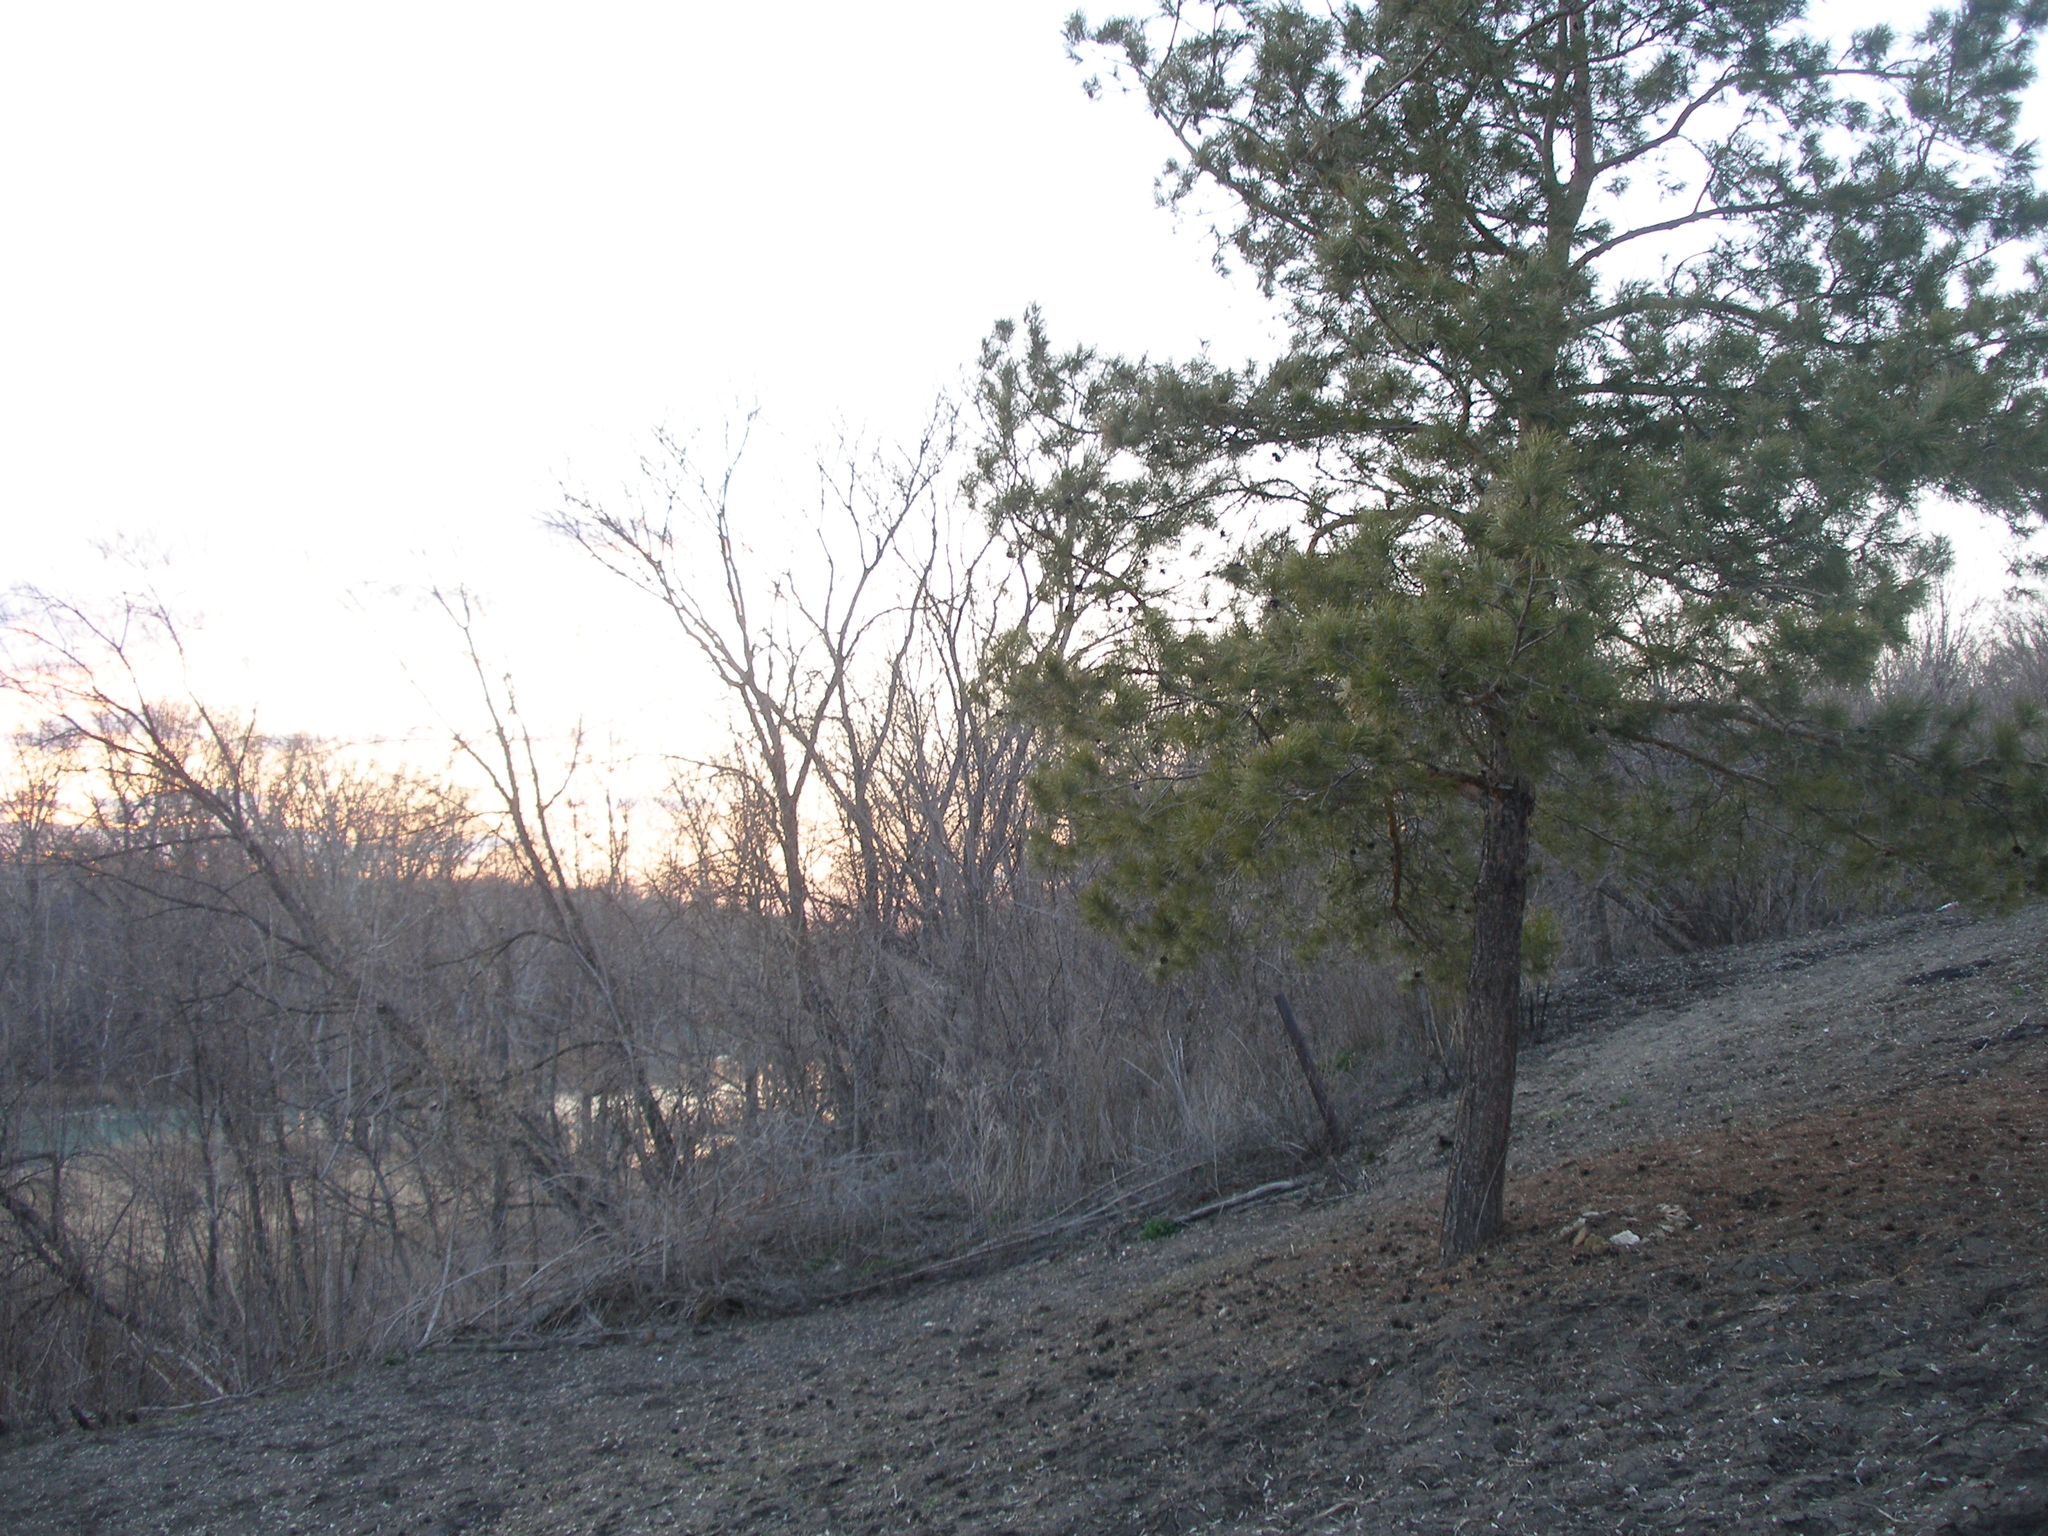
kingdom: Plantae
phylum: Tracheophyta
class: Pinopsida
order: Pinales
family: Pinaceae
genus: Pinus
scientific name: Pinus sylvestris
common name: Scots pine
